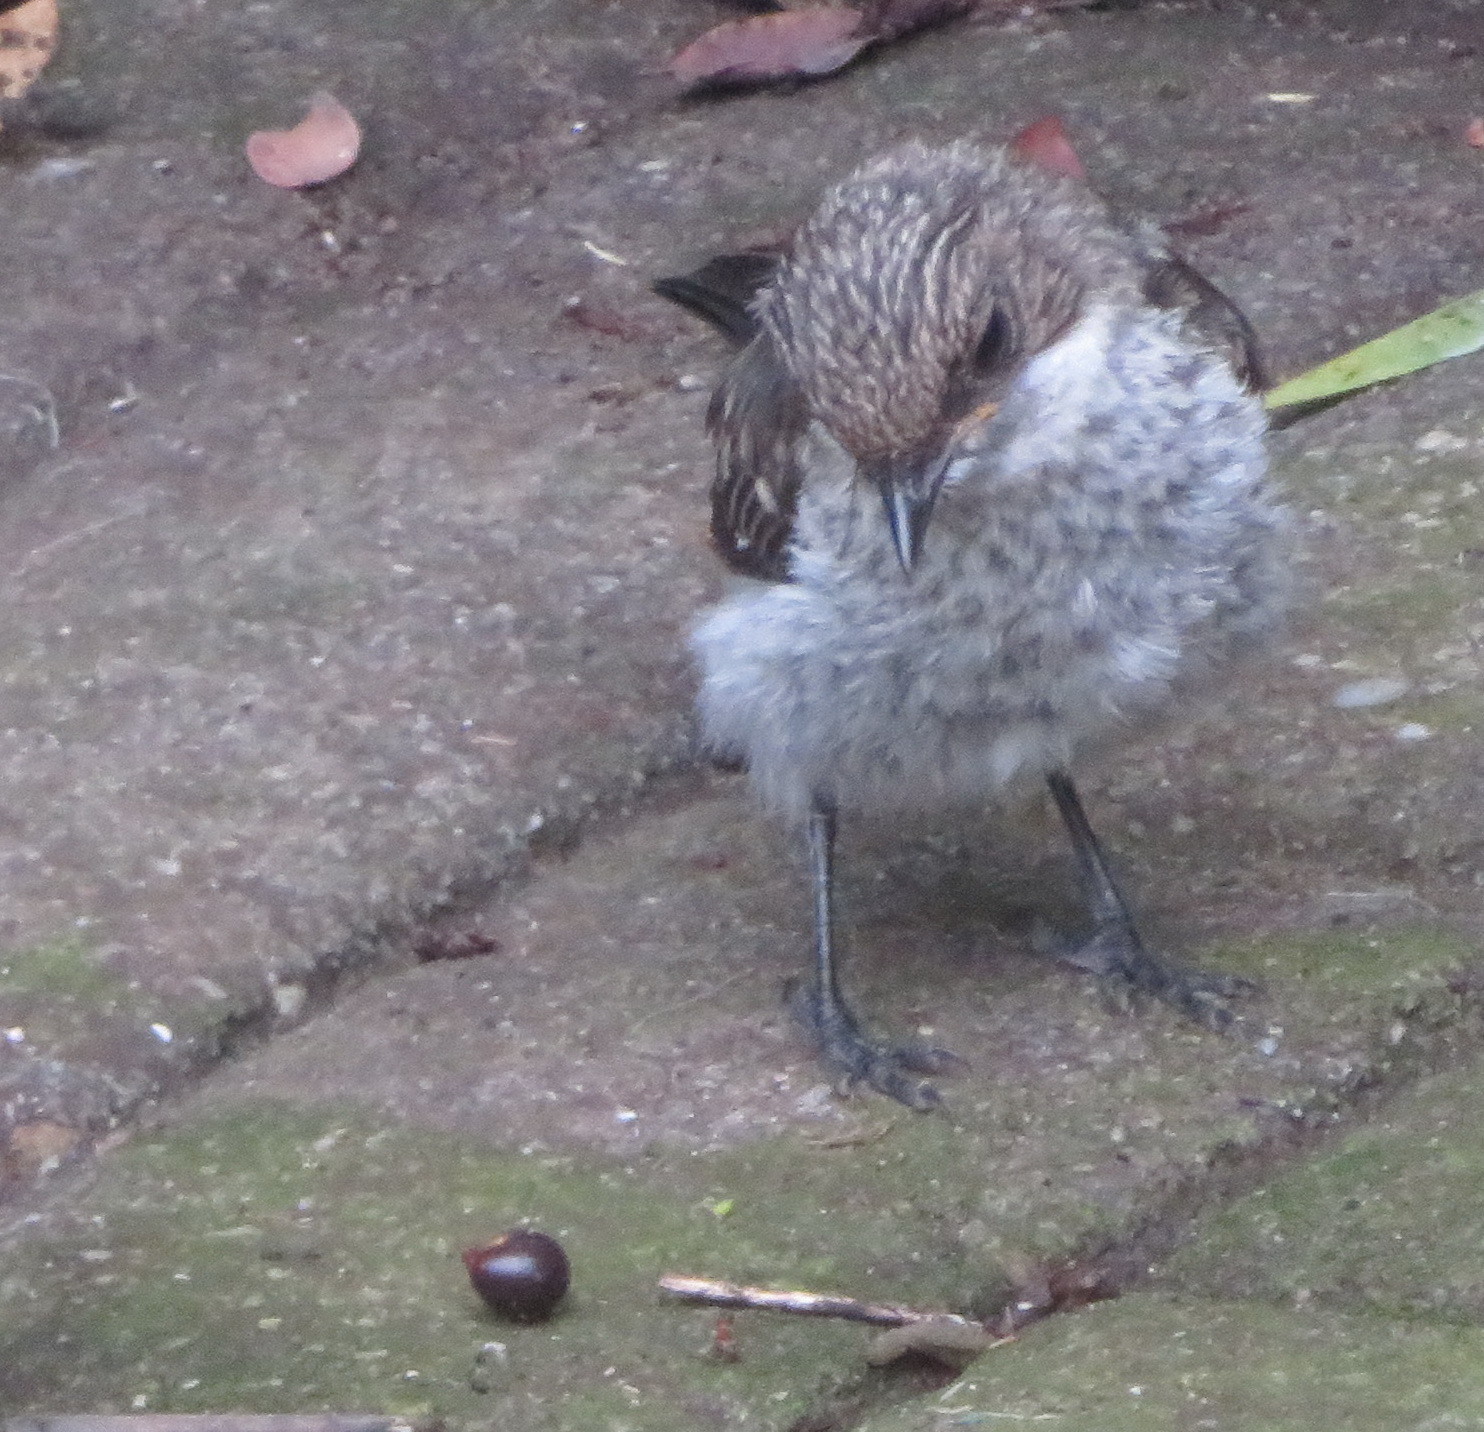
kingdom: Animalia
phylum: Chordata
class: Aves
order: Passeriformes
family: Muscicapidae
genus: Sigelus
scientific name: Sigelus silens
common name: Fiscal flycatcher
